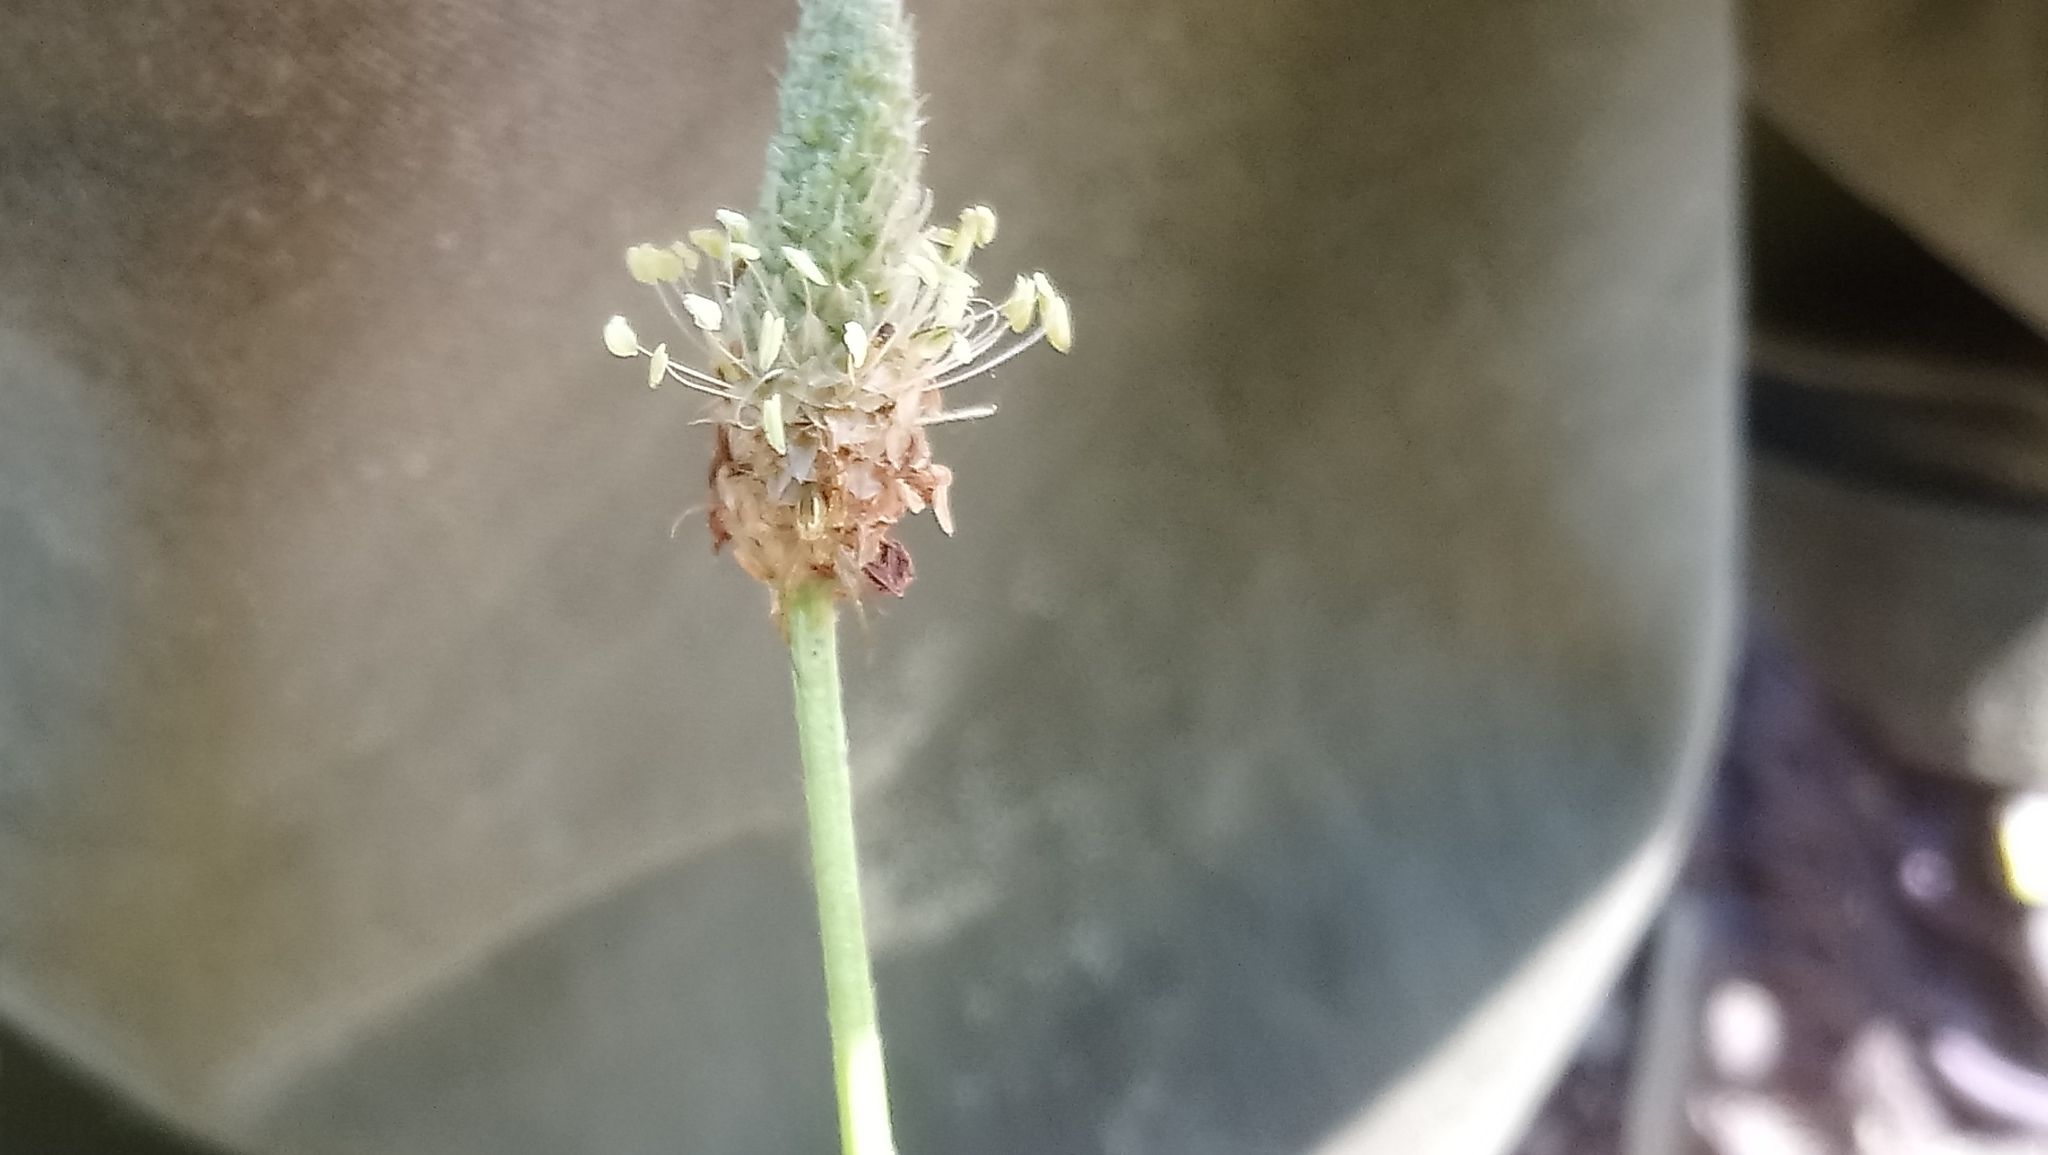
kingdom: Plantae
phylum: Tracheophyta
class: Magnoliopsida
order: Lamiales
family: Plantaginaceae
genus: Plantago
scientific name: Plantago lanceolata
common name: Ribwort plantain
